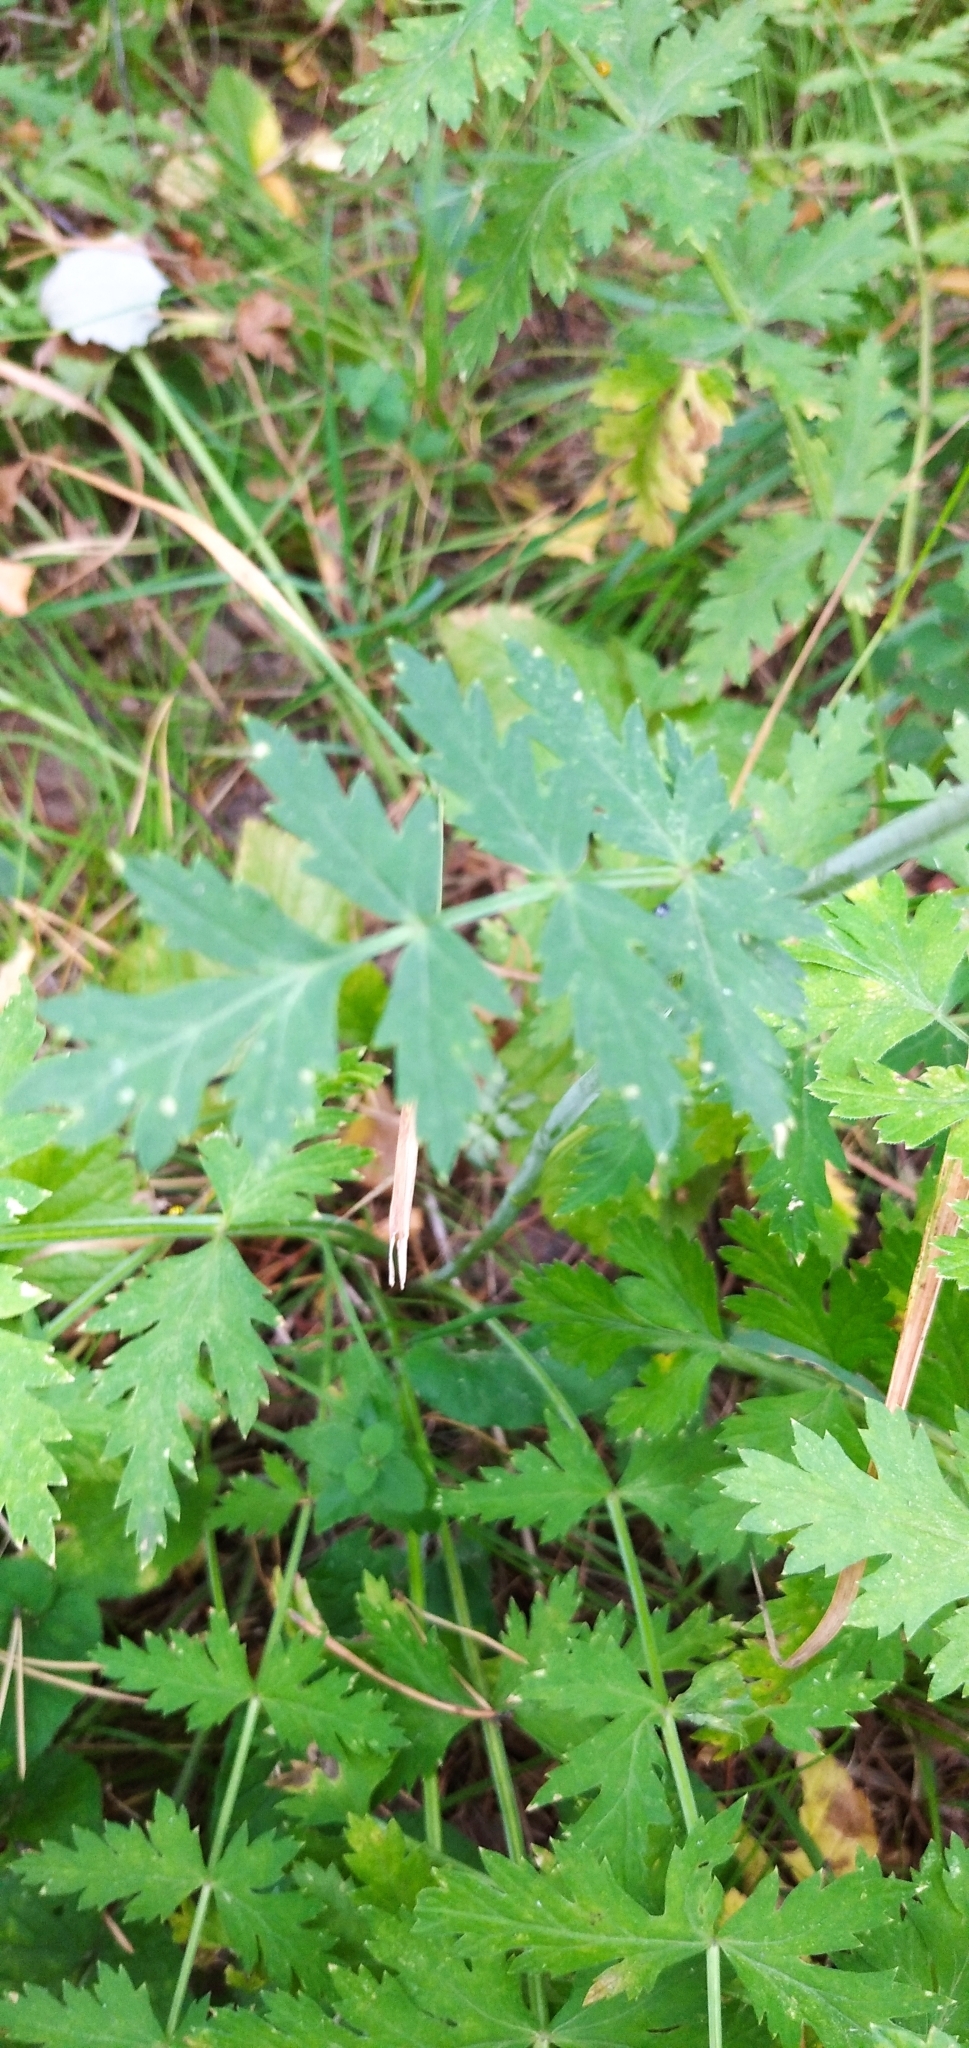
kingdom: Plantae
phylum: Tracheophyta
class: Magnoliopsida
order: Apiales
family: Apiaceae
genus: Seseli
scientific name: Seseli krylovii
